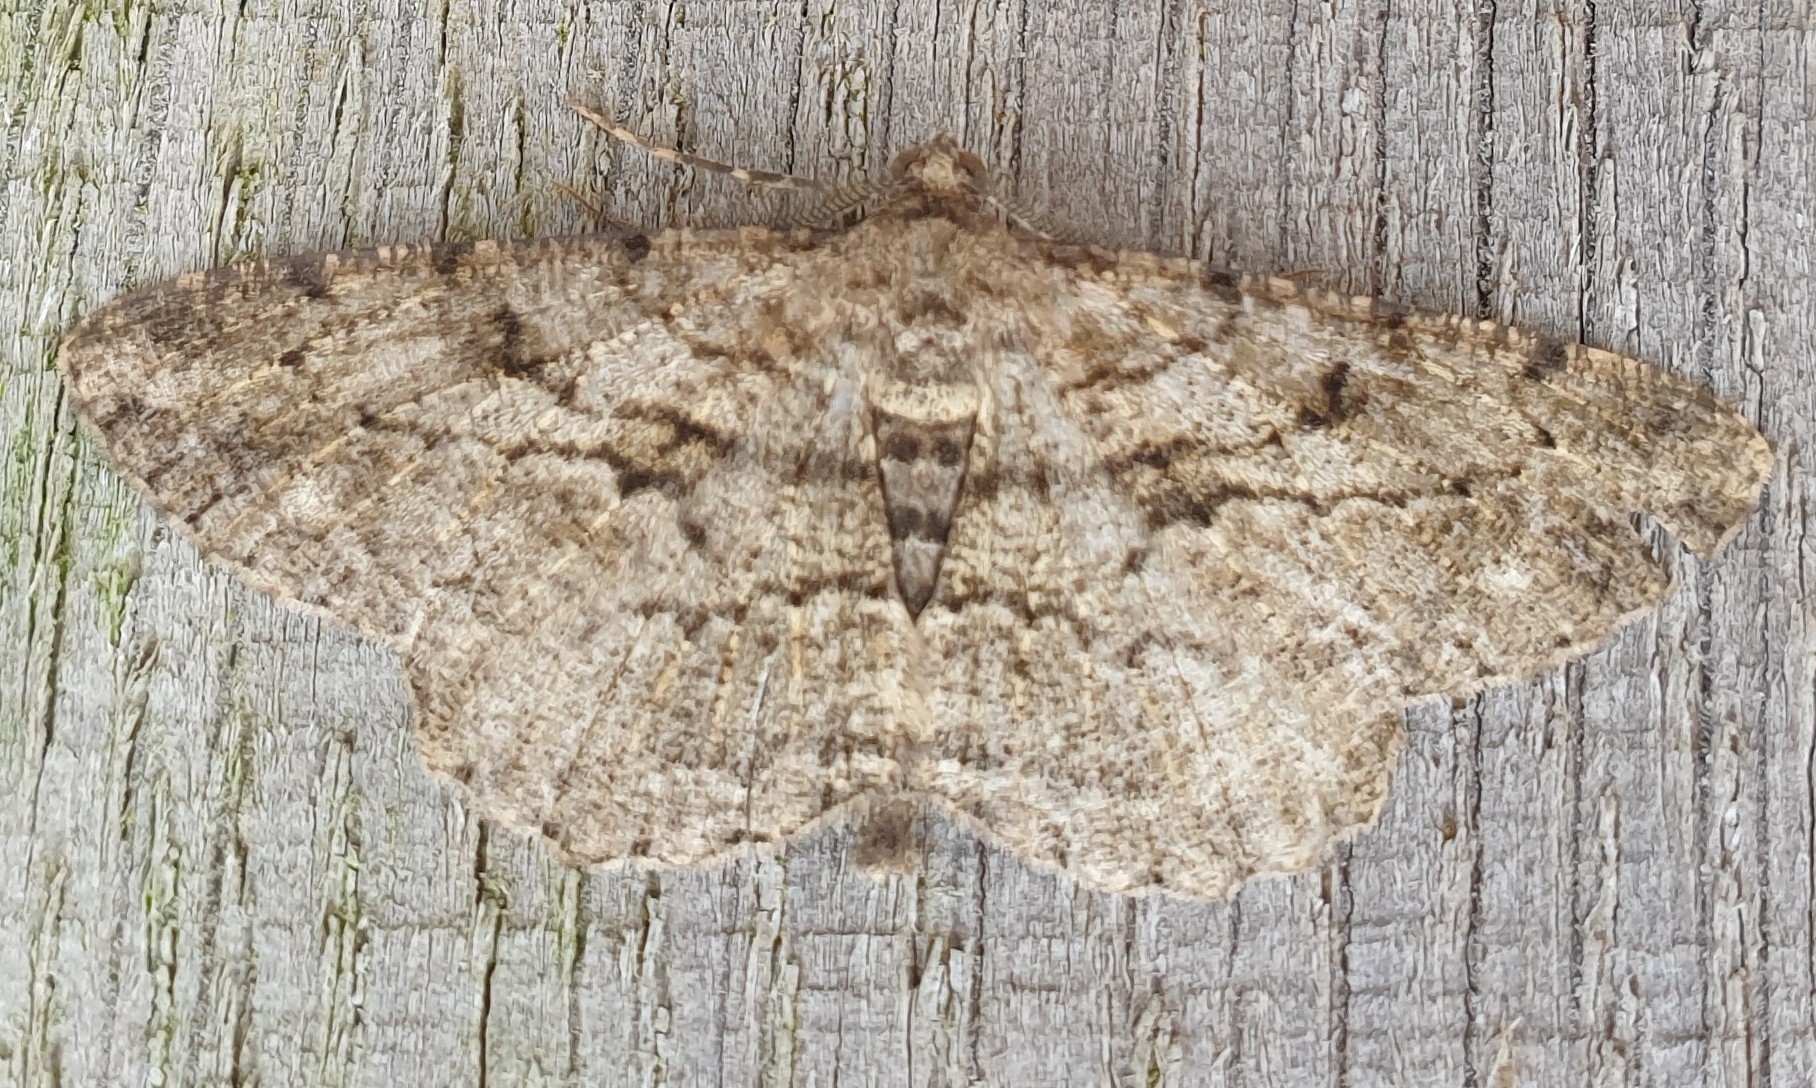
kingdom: Animalia
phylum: Arthropoda
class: Insecta
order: Lepidoptera
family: Geometridae
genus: Peribatodes
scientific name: Peribatodes rhomboidaria
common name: Willow beauty
